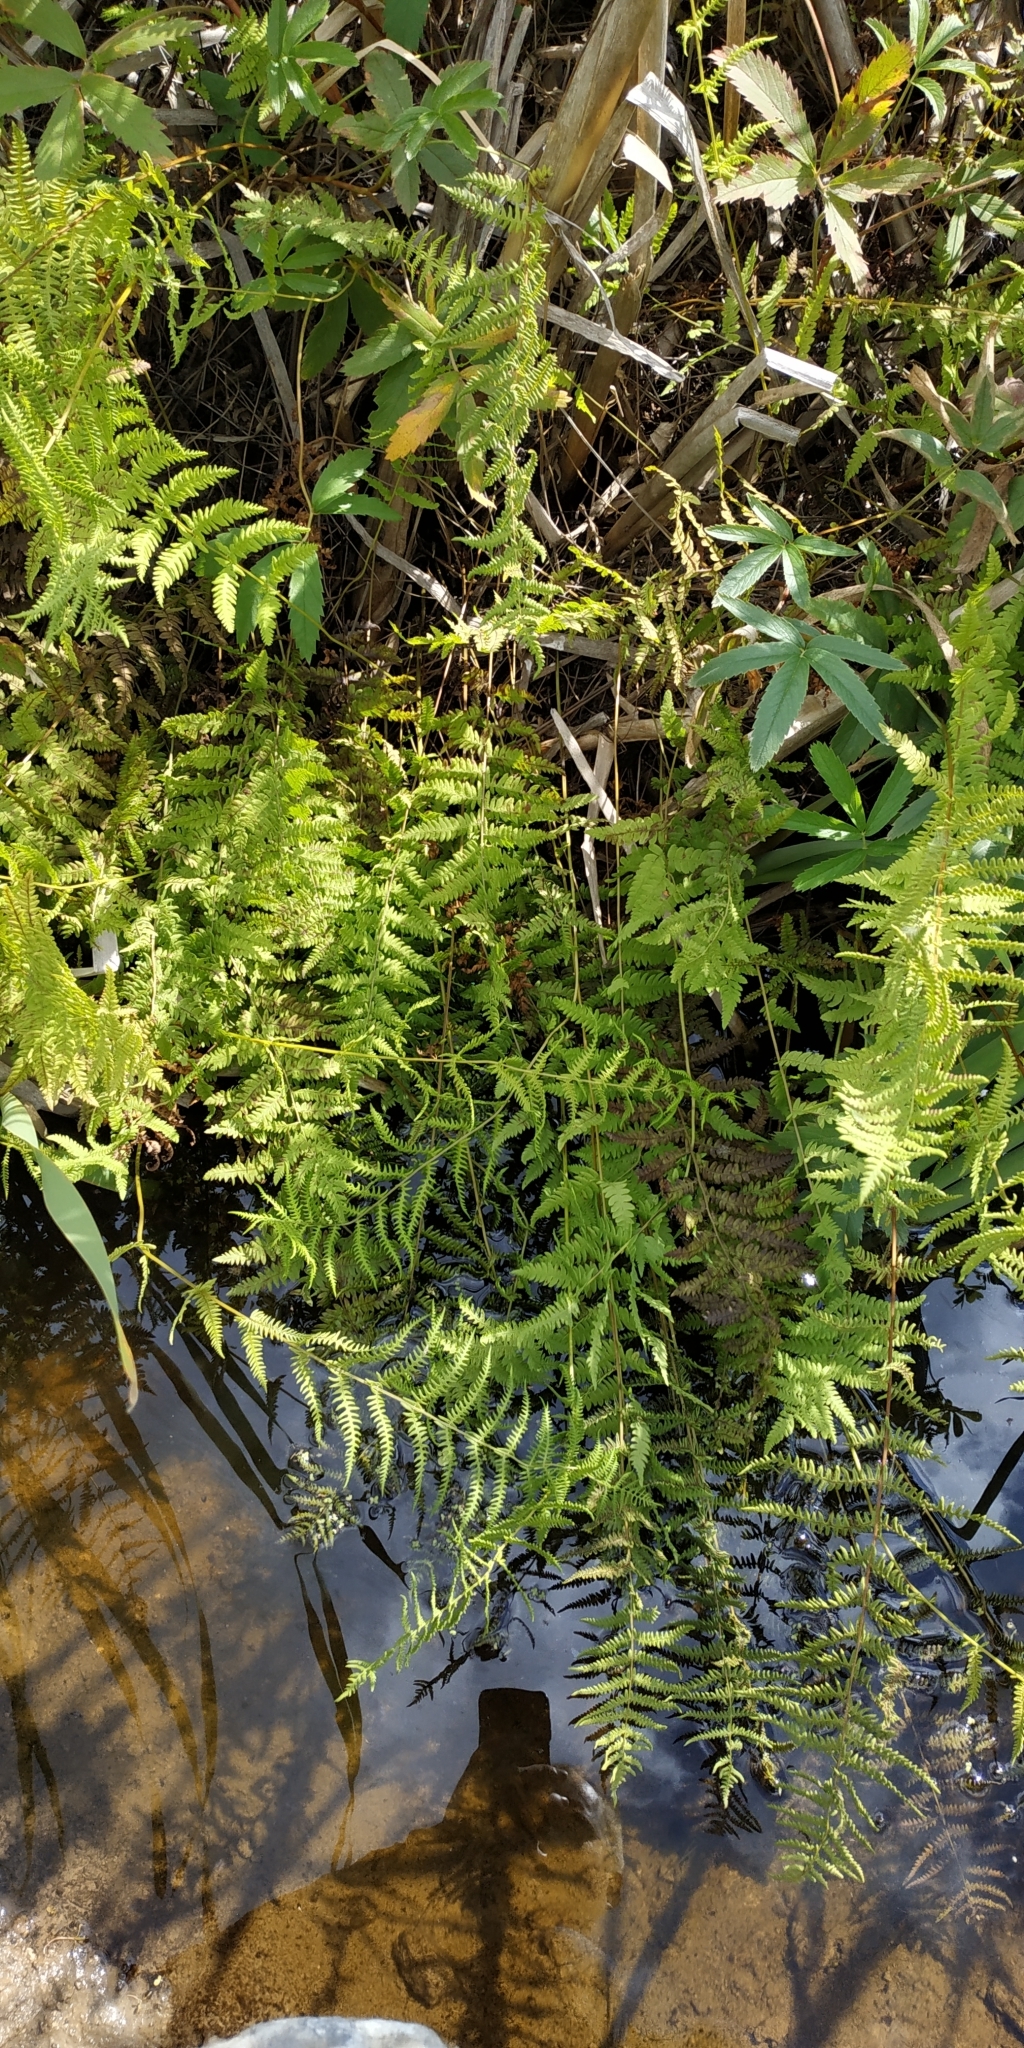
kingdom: Plantae
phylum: Tracheophyta
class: Polypodiopsida
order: Polypodiales
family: Thelypteridaceae
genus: Thelypteris
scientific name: Thelypteris palustris
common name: Marsh fern
